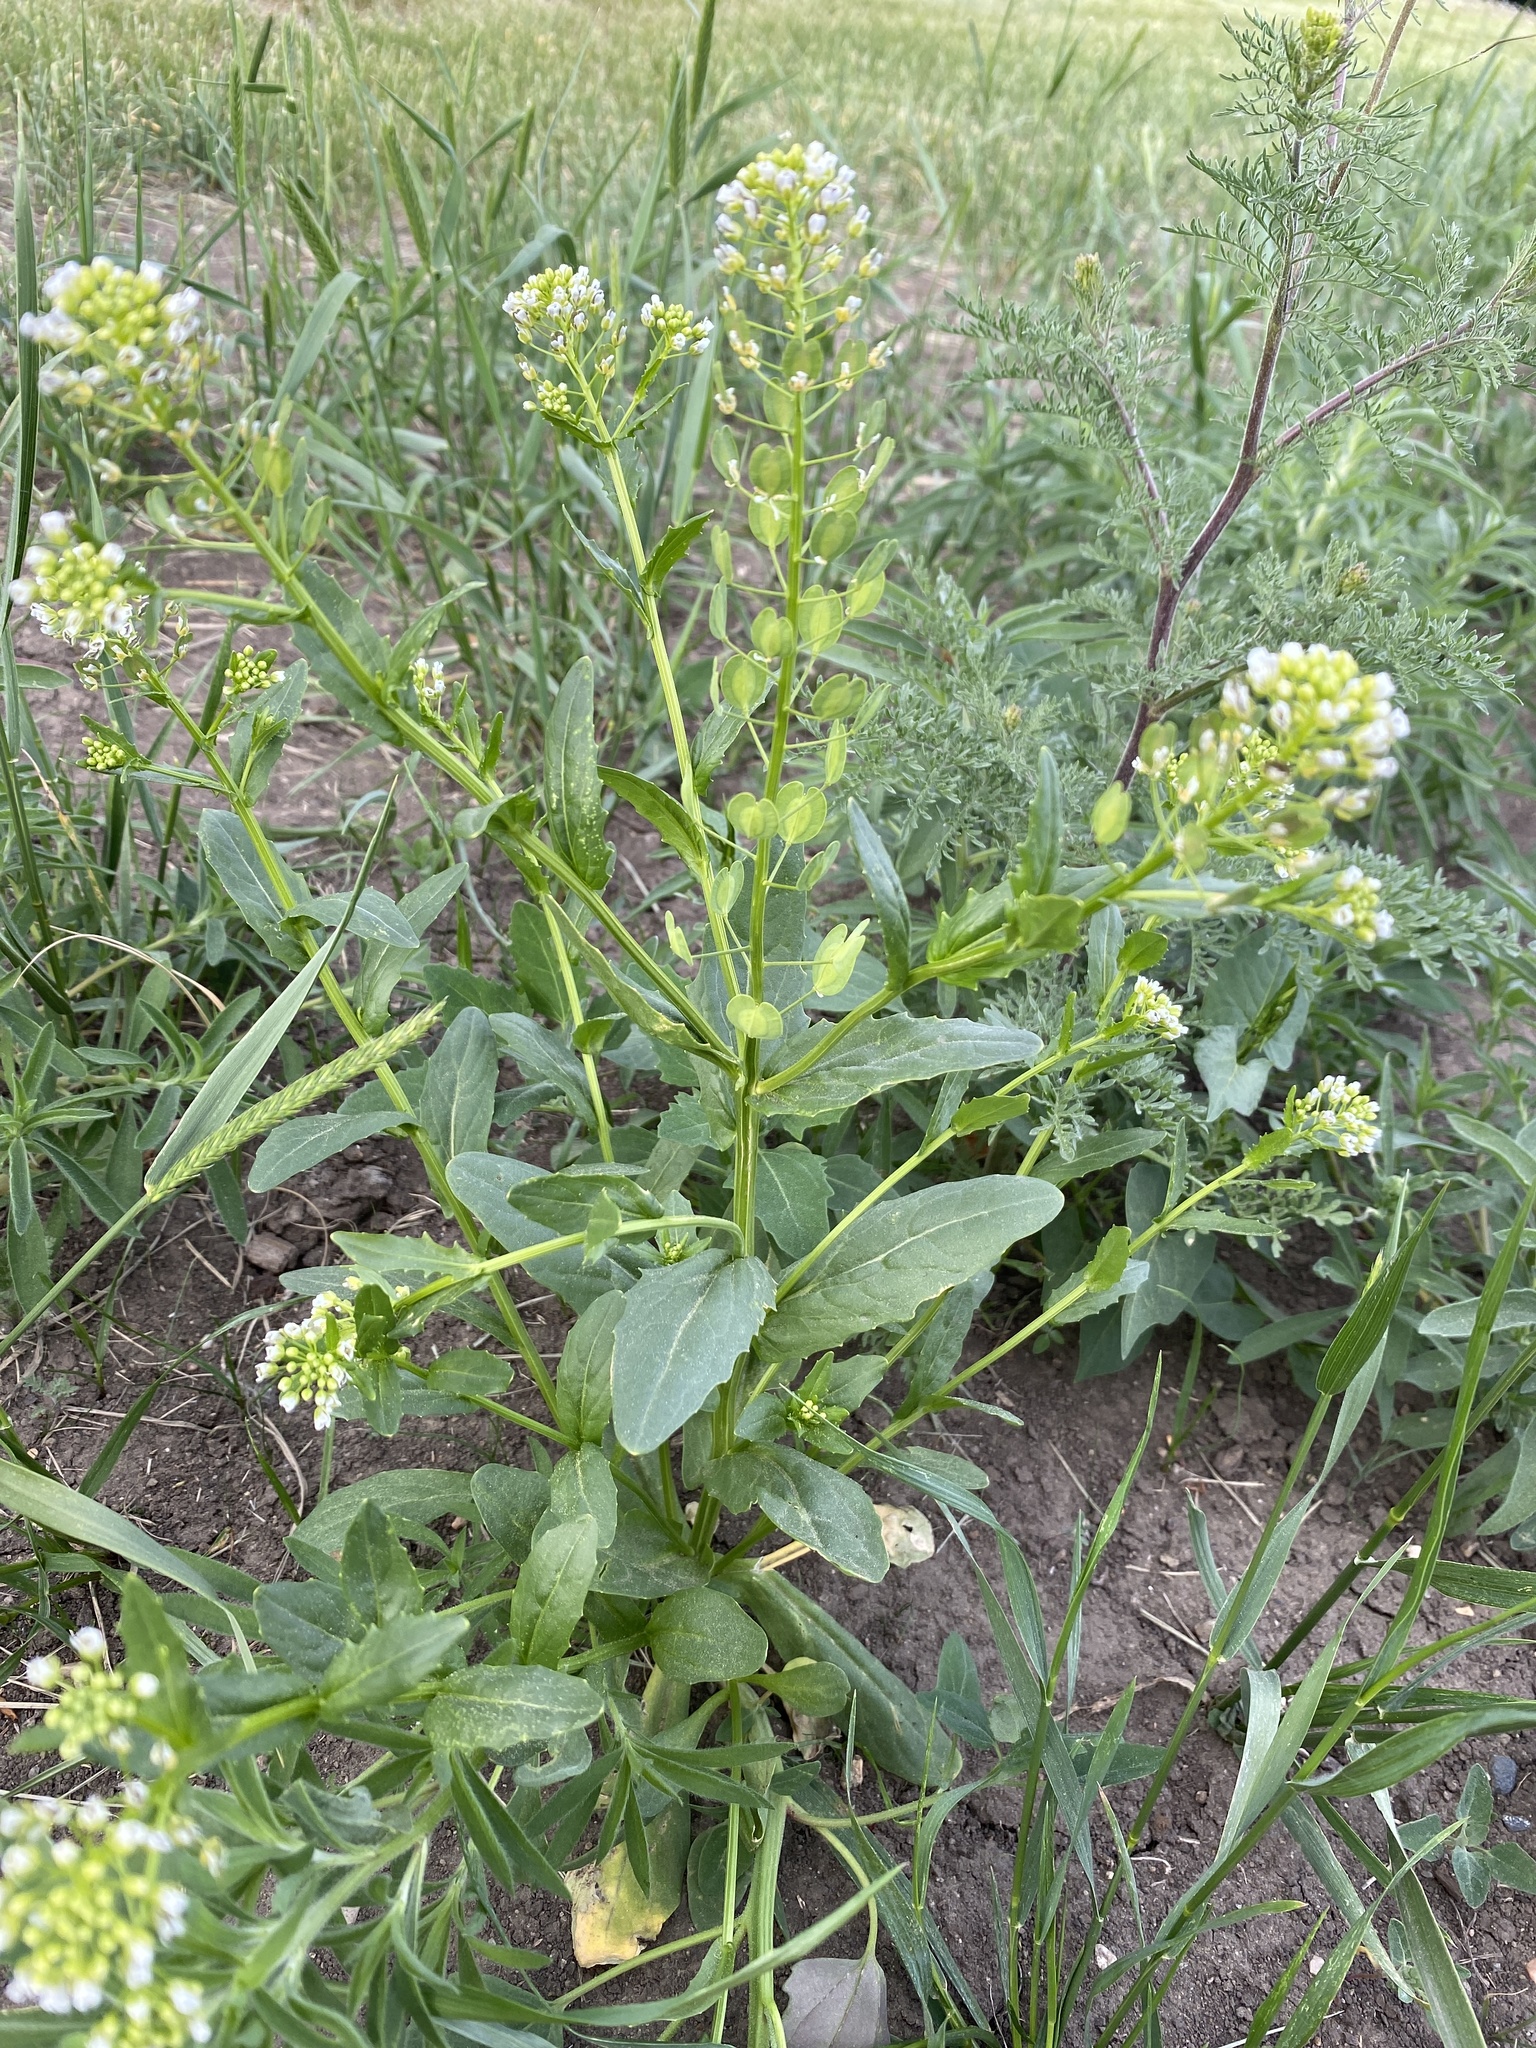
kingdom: Plantae
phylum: Tracheophyta
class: Magnoliopsida
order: Brassicales
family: Brassicaceae
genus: Thlaspi
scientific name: Thlaspi arvense
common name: Field pennycress
